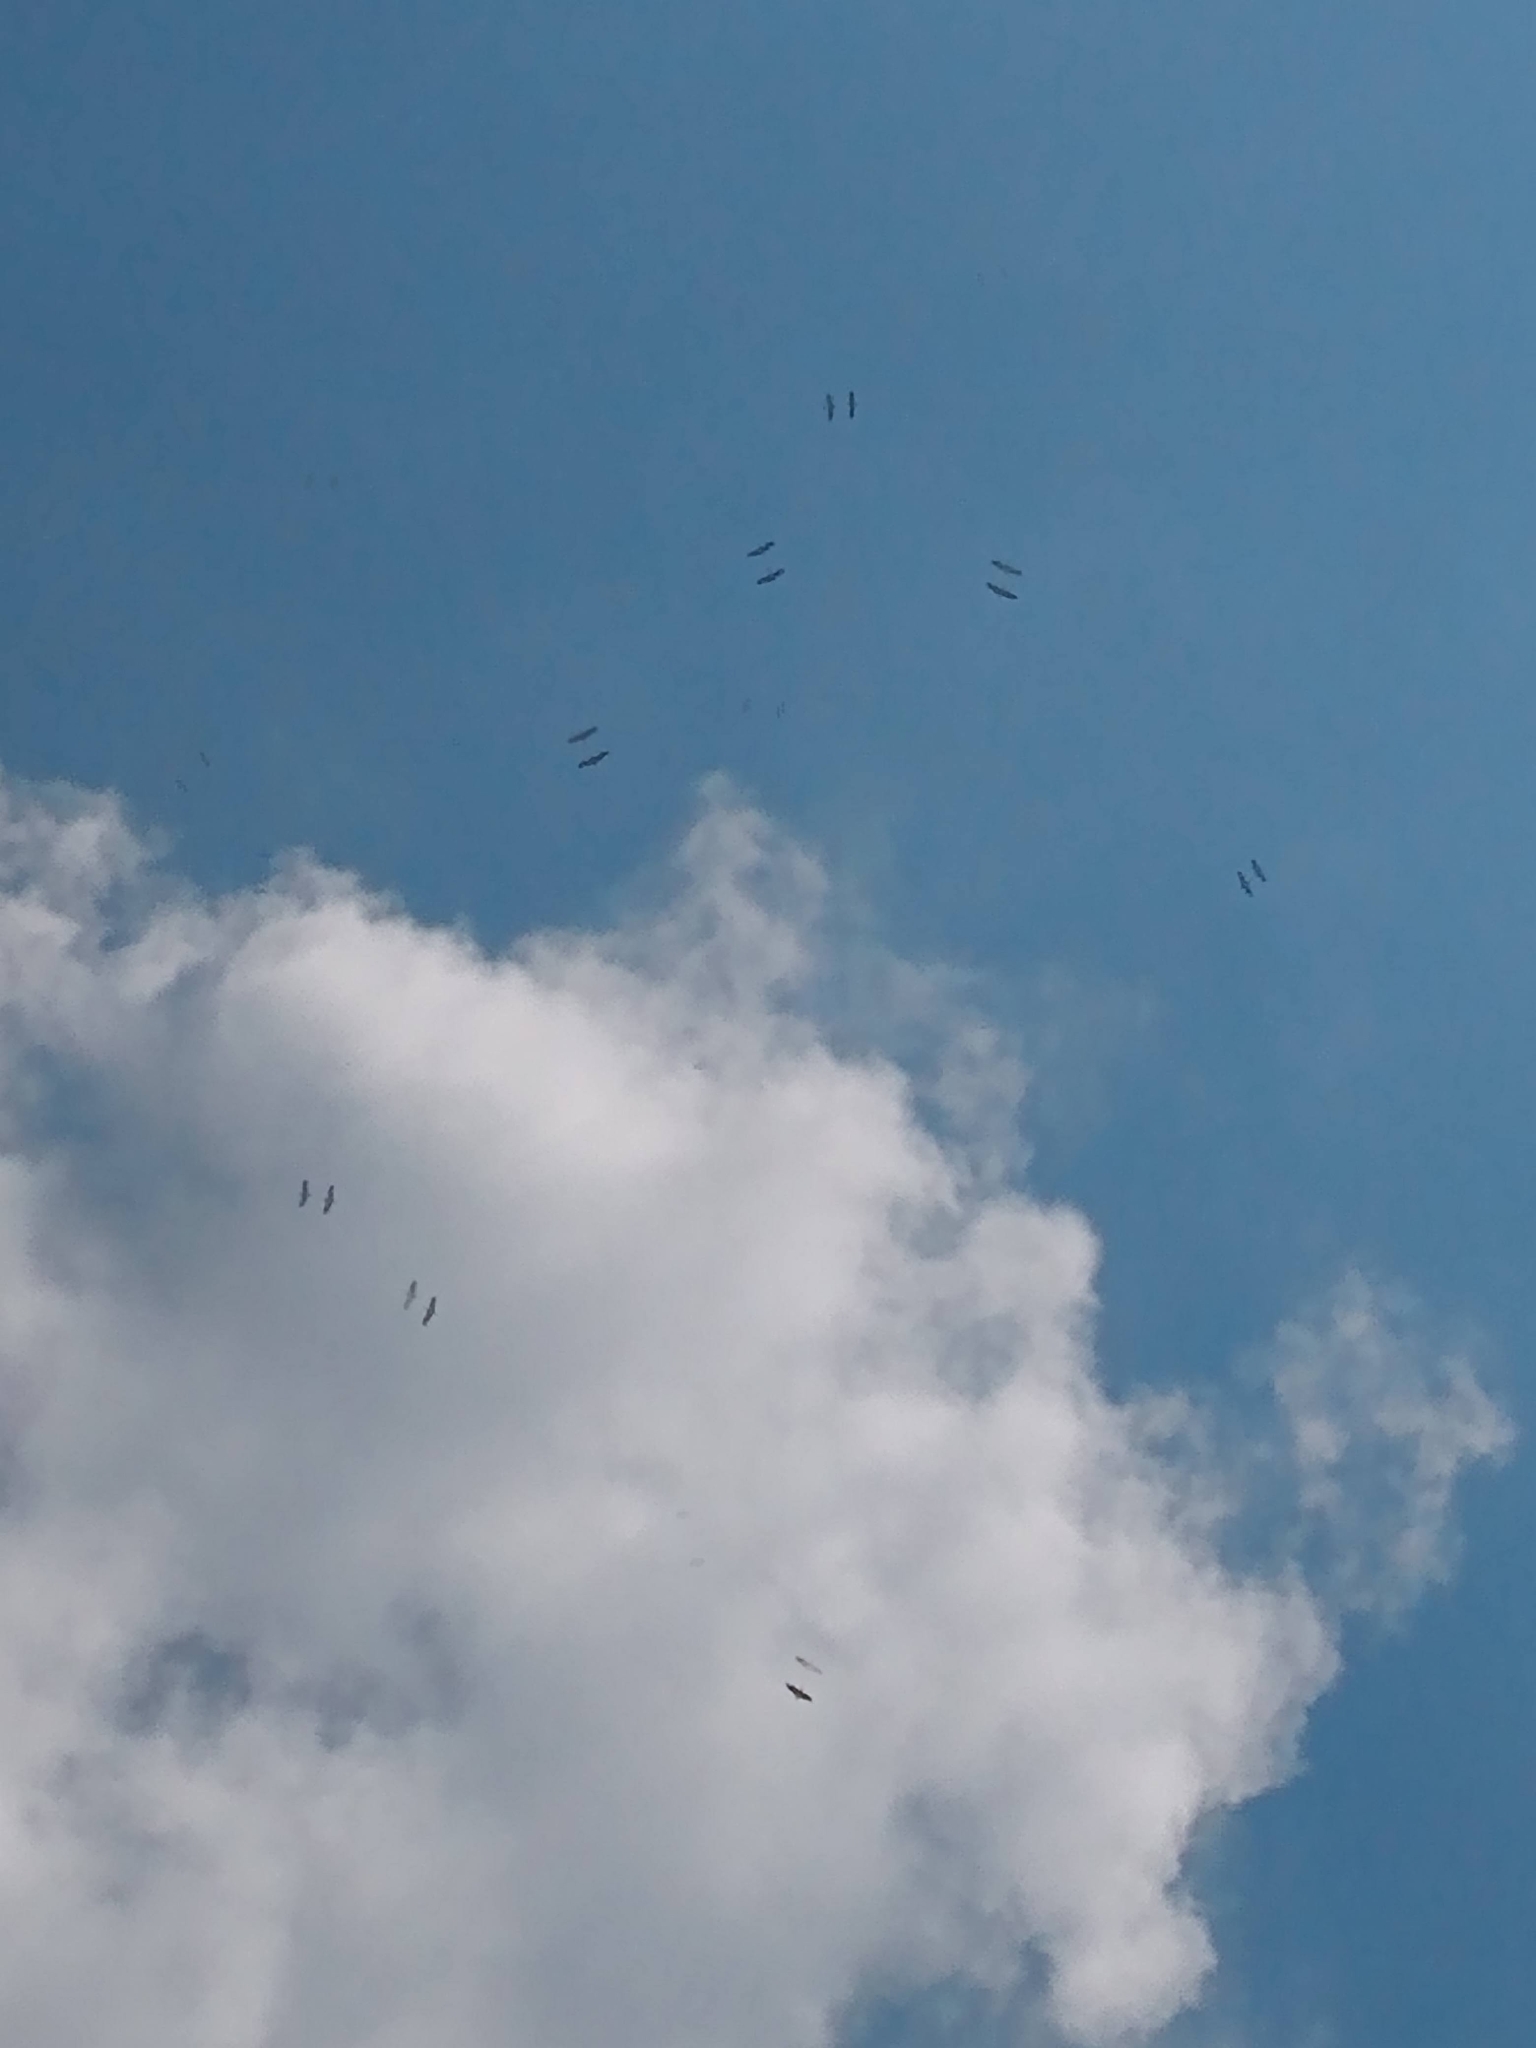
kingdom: Animalia
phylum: Chordata
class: Aves
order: Ciconiiformes
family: Ciconiidae
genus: Ciconia
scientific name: Ciconia ciconia
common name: White stork
